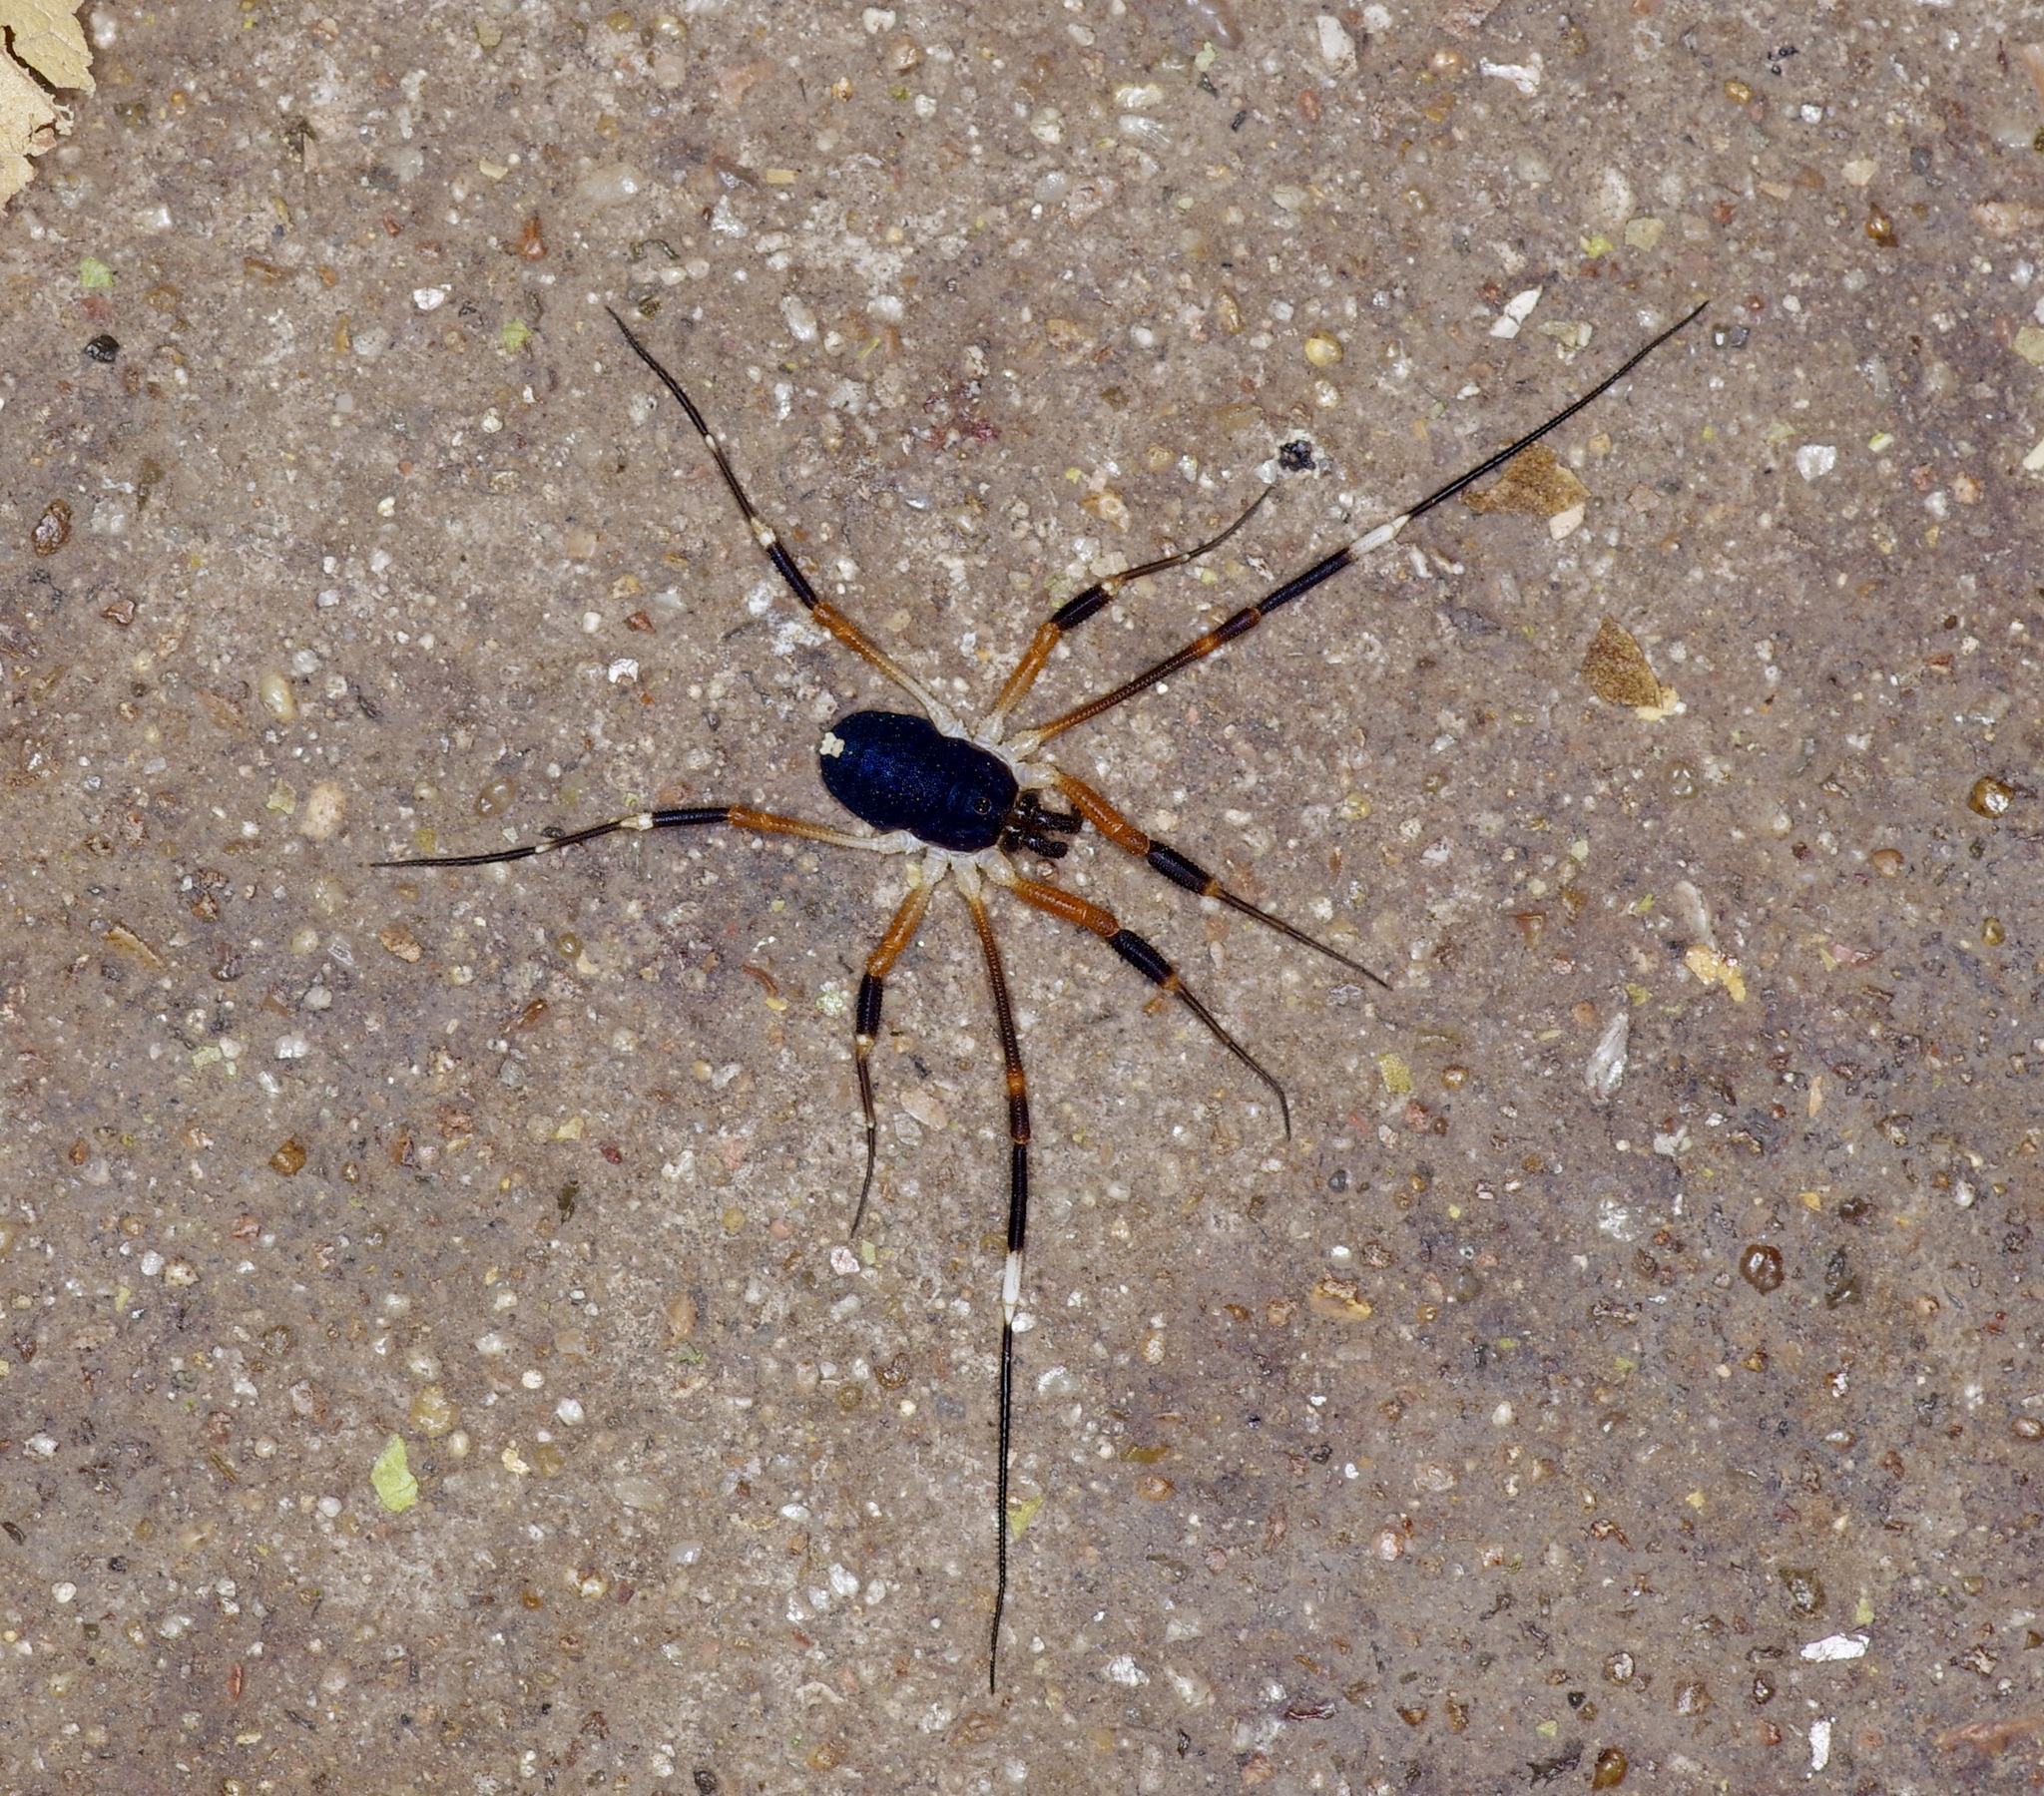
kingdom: Animalia
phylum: Arthropoda
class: Arachnida
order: Opiliones
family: Globipedidae
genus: Dalquestia
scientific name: Dalquestia formosa
